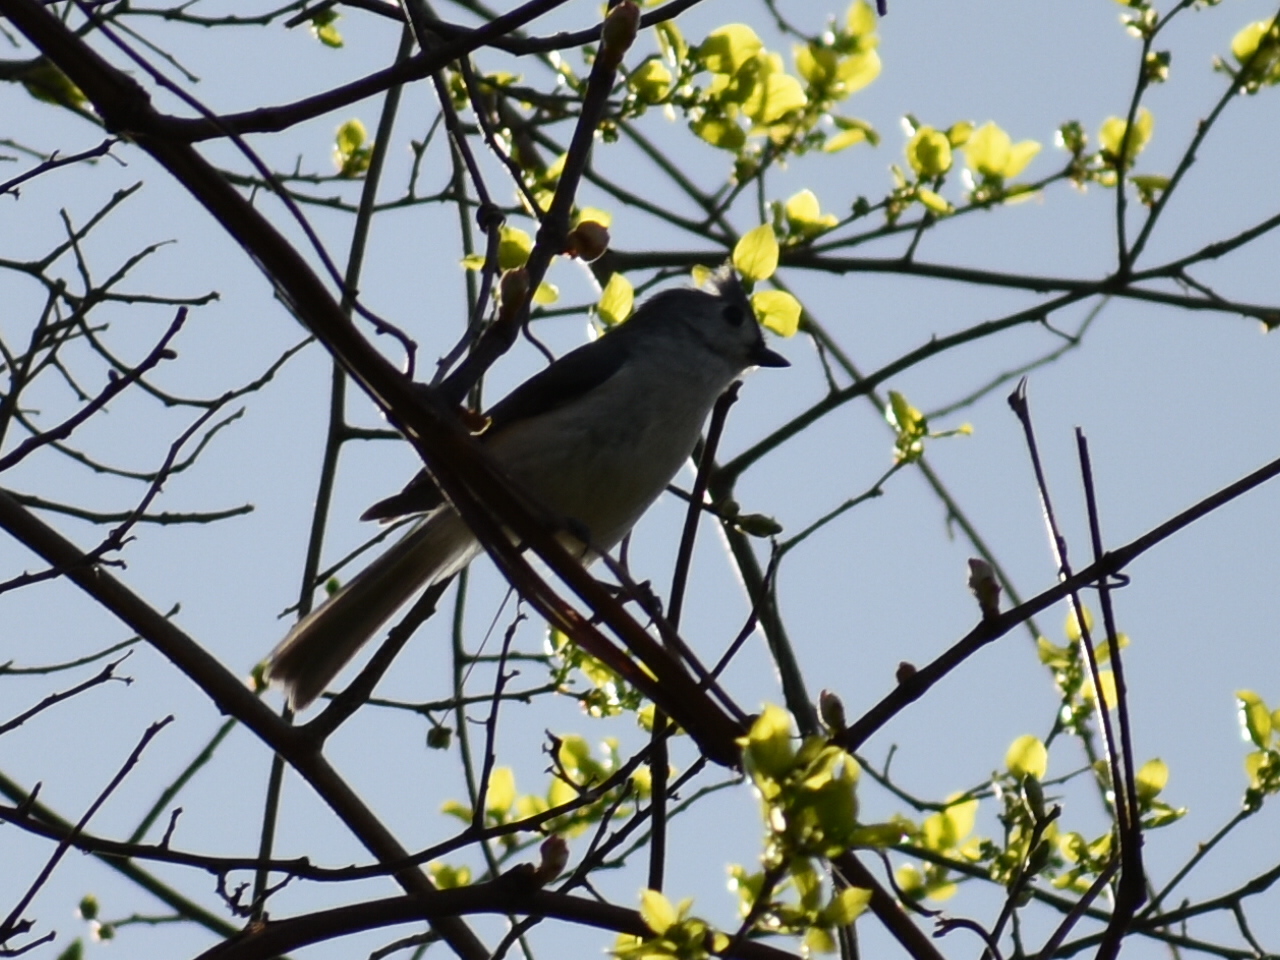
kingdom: Animalia
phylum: Chordata
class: Aves
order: Passeriformes
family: Paridae
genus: Baeolophus
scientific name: Baeolophus bicolor
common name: Tufted titmouse
